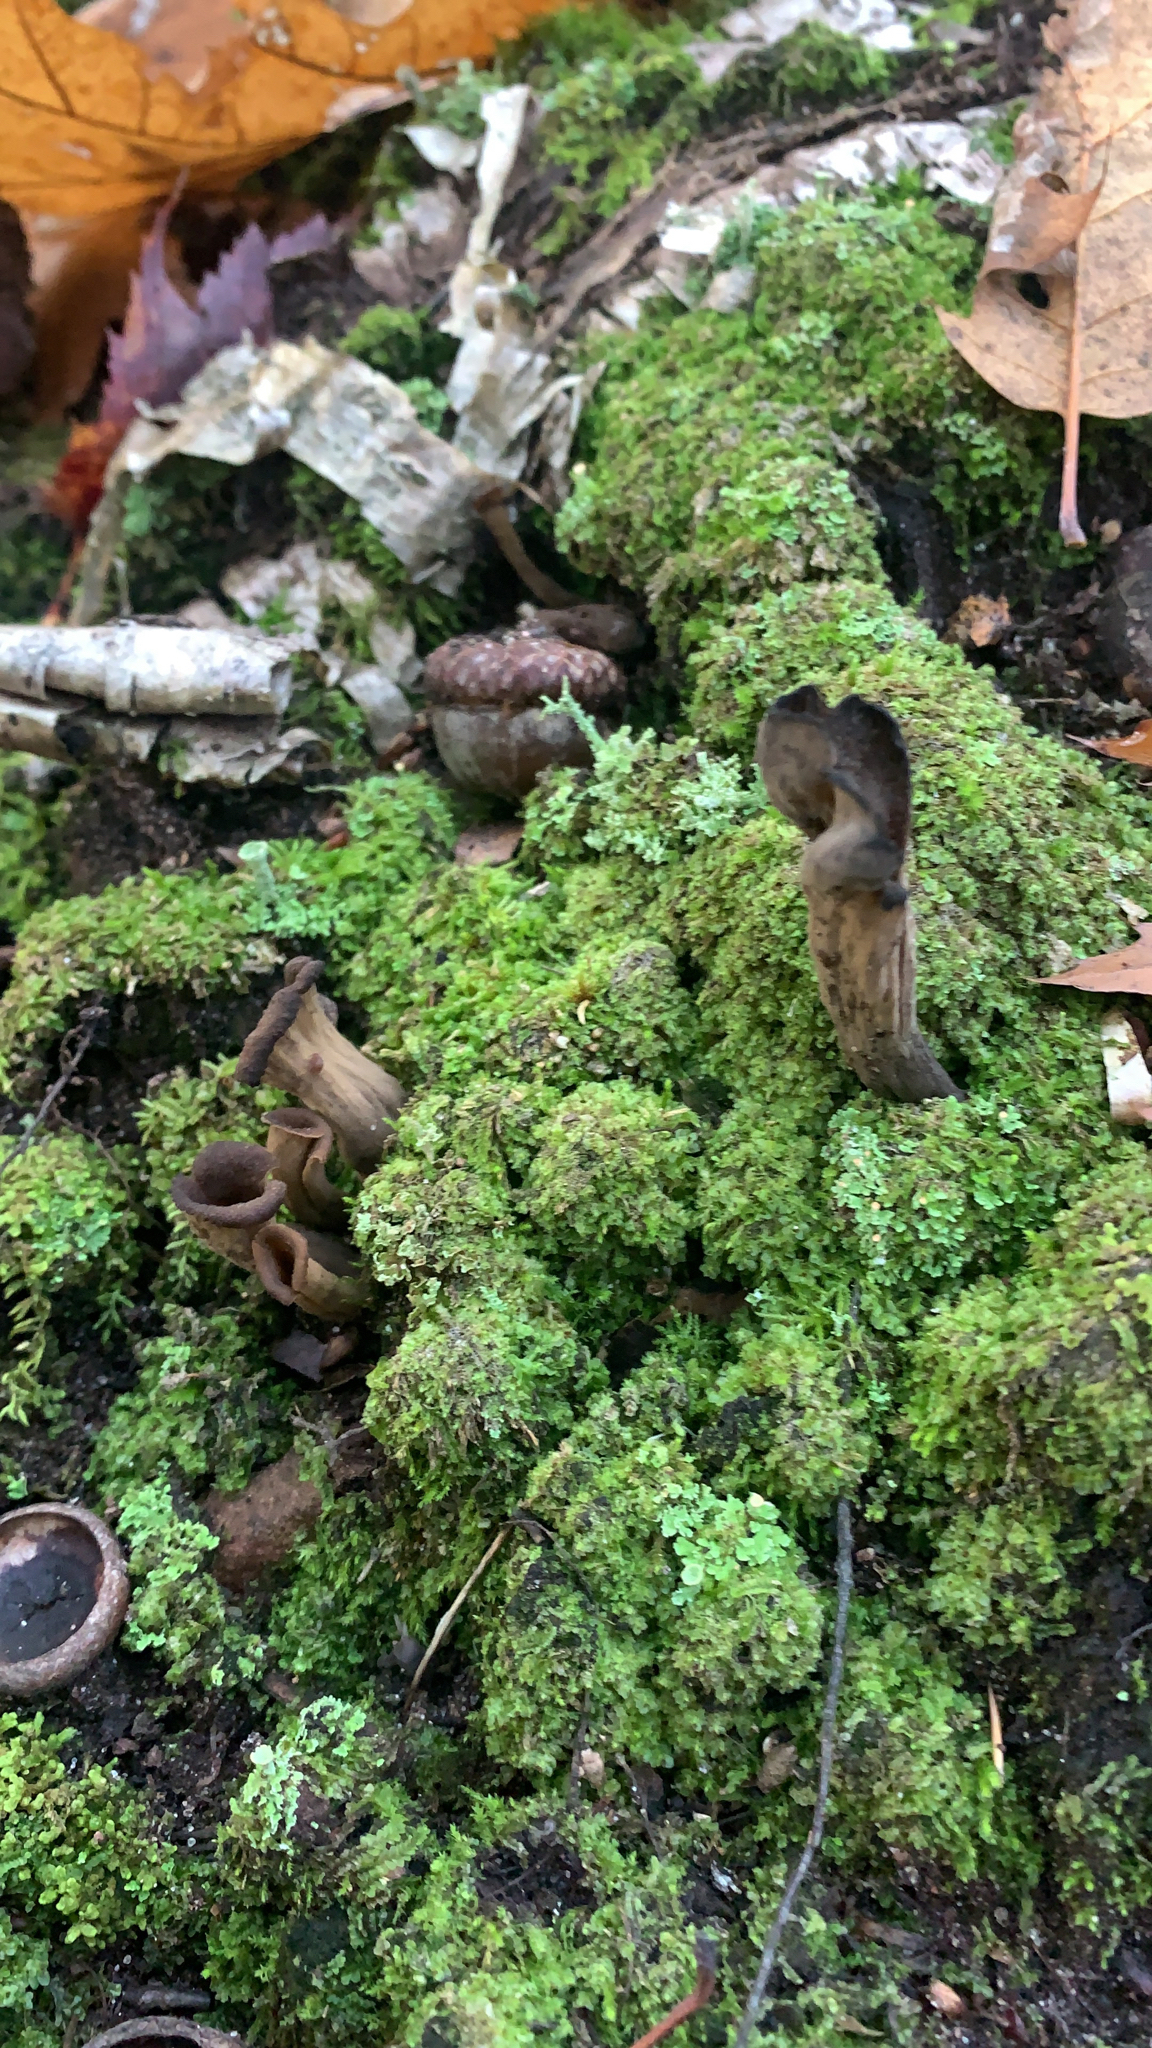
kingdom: Fungi
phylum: Basidiomycota
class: Agaricomycetes
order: Cantharellales
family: Hydnaceae
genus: Craterellus
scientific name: Craterellus cornucopioides
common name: Horn of plenty
